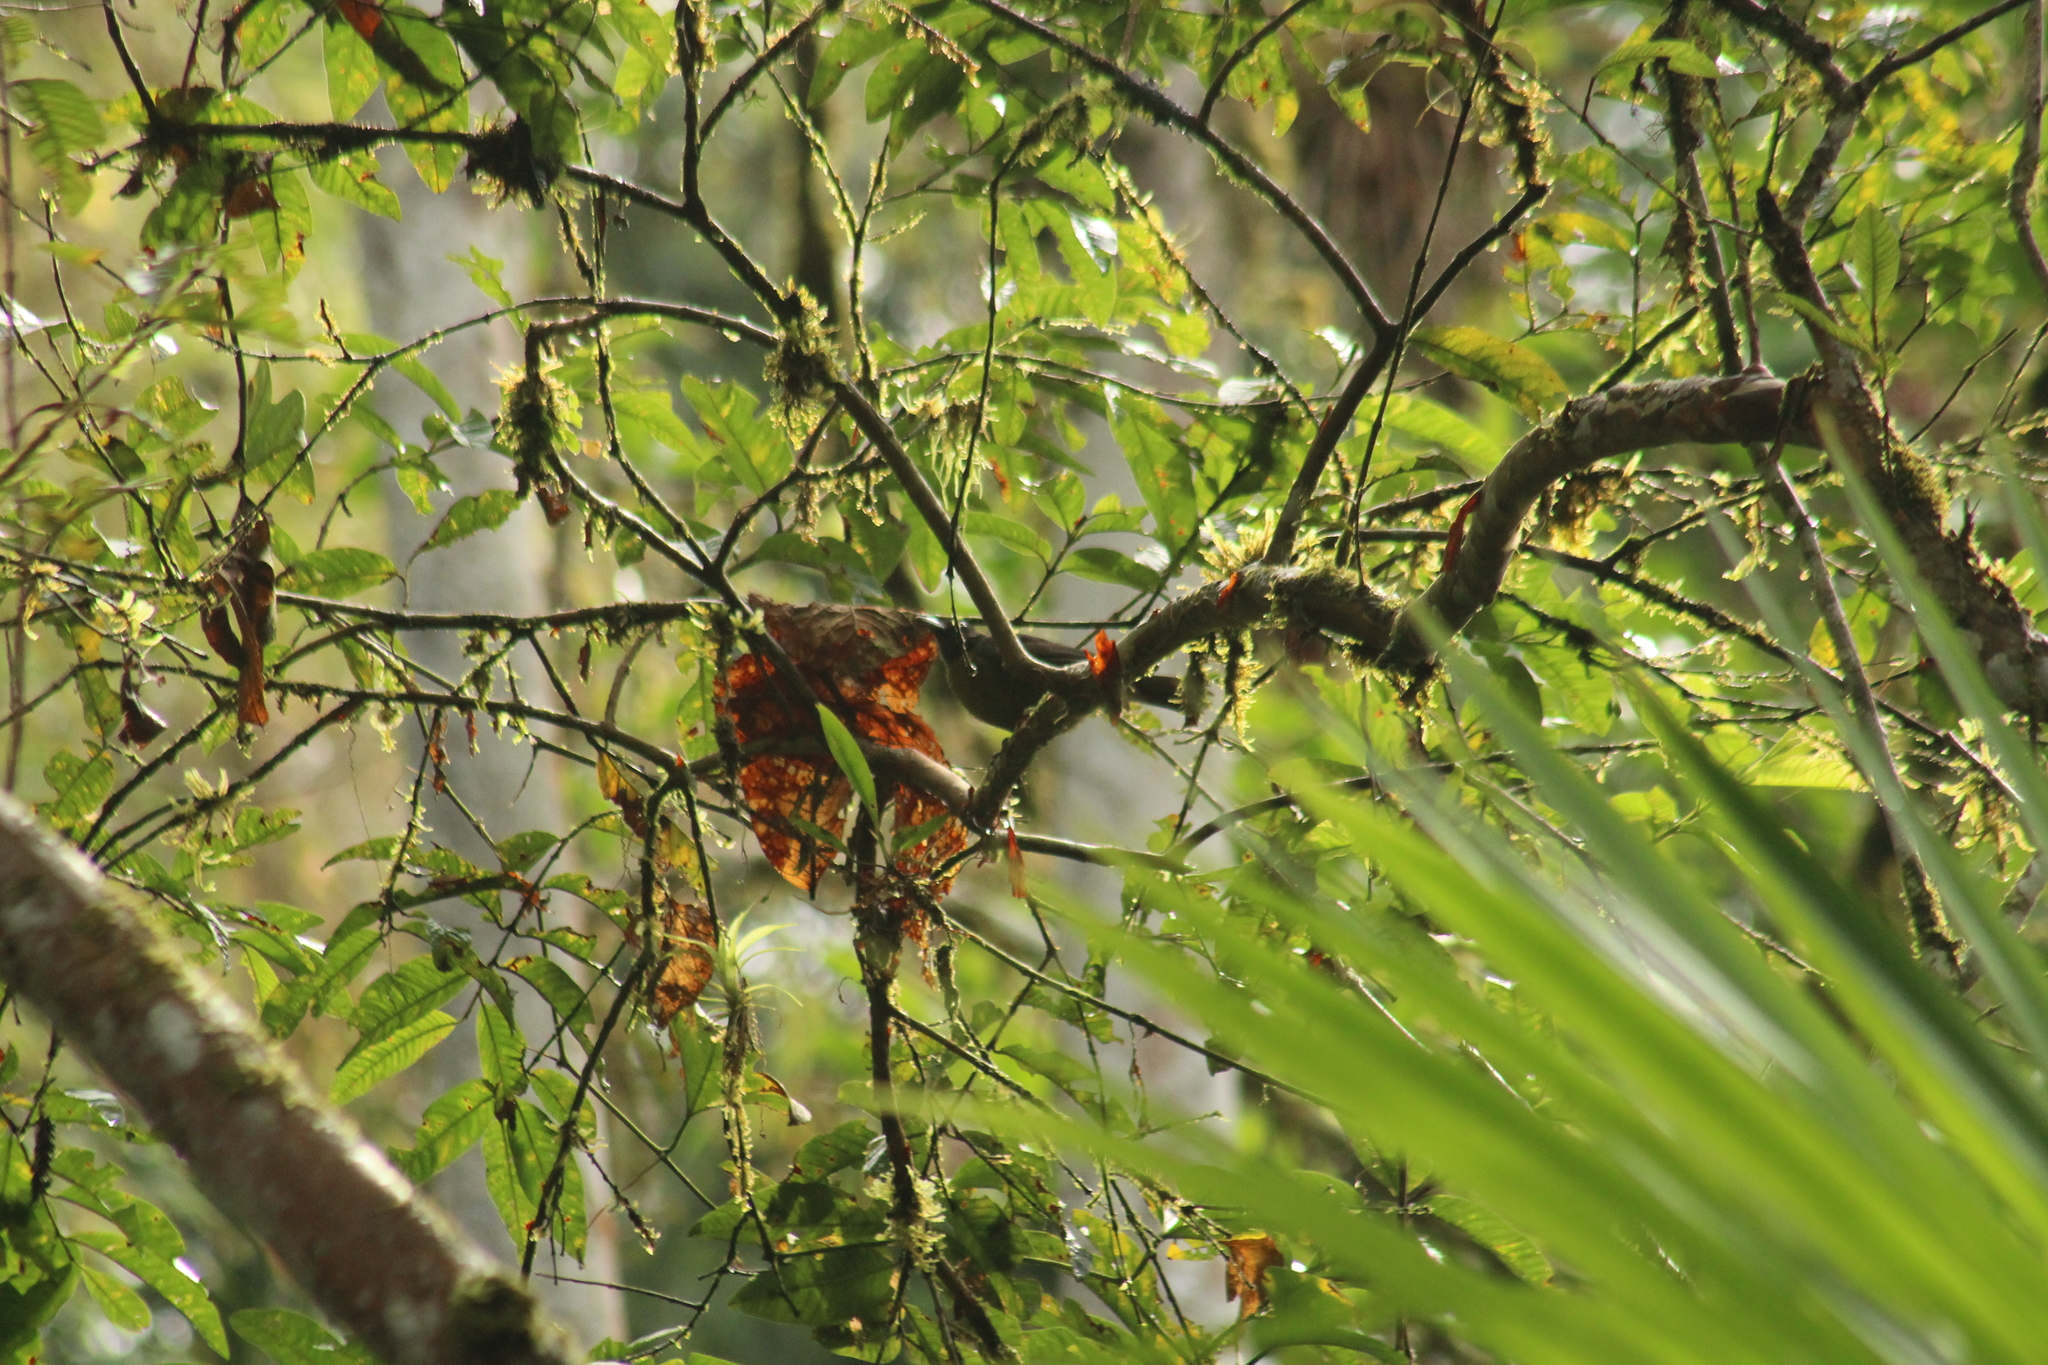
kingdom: Animalia
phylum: Chordata
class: Aves
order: Passeriformes
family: Mitrospingidae
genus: Mitrospingus
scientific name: Mitrospingus cassinii
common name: Dusky-faced tanager
